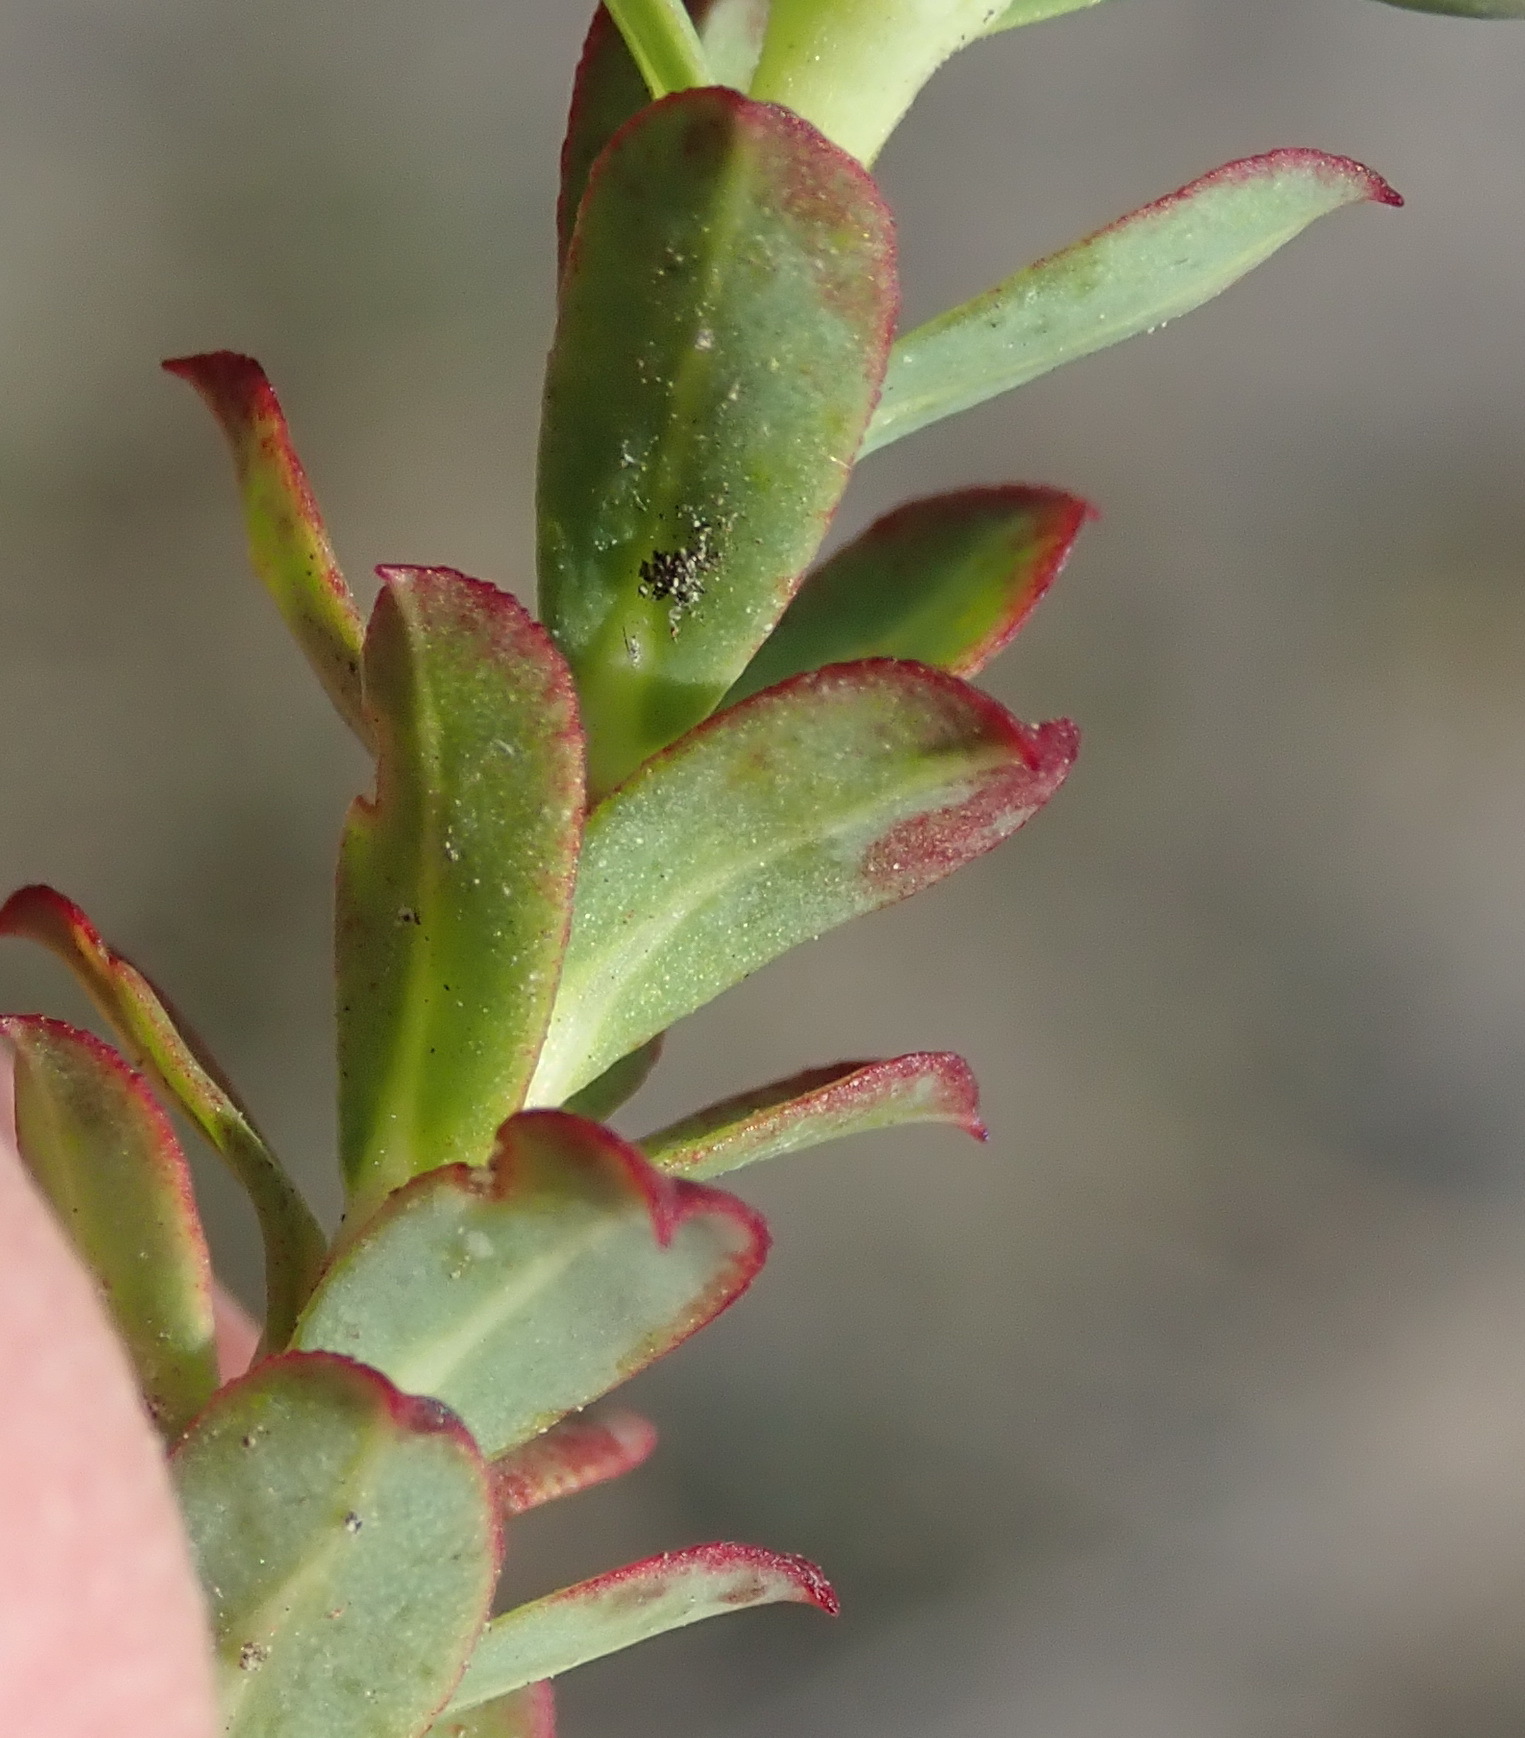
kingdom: Plantae
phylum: Tracheophyta
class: Magnoliopsida
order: Malpighiales
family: Euphorbiaceae
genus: Euphorbia
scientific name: Euphorbia foliosa
